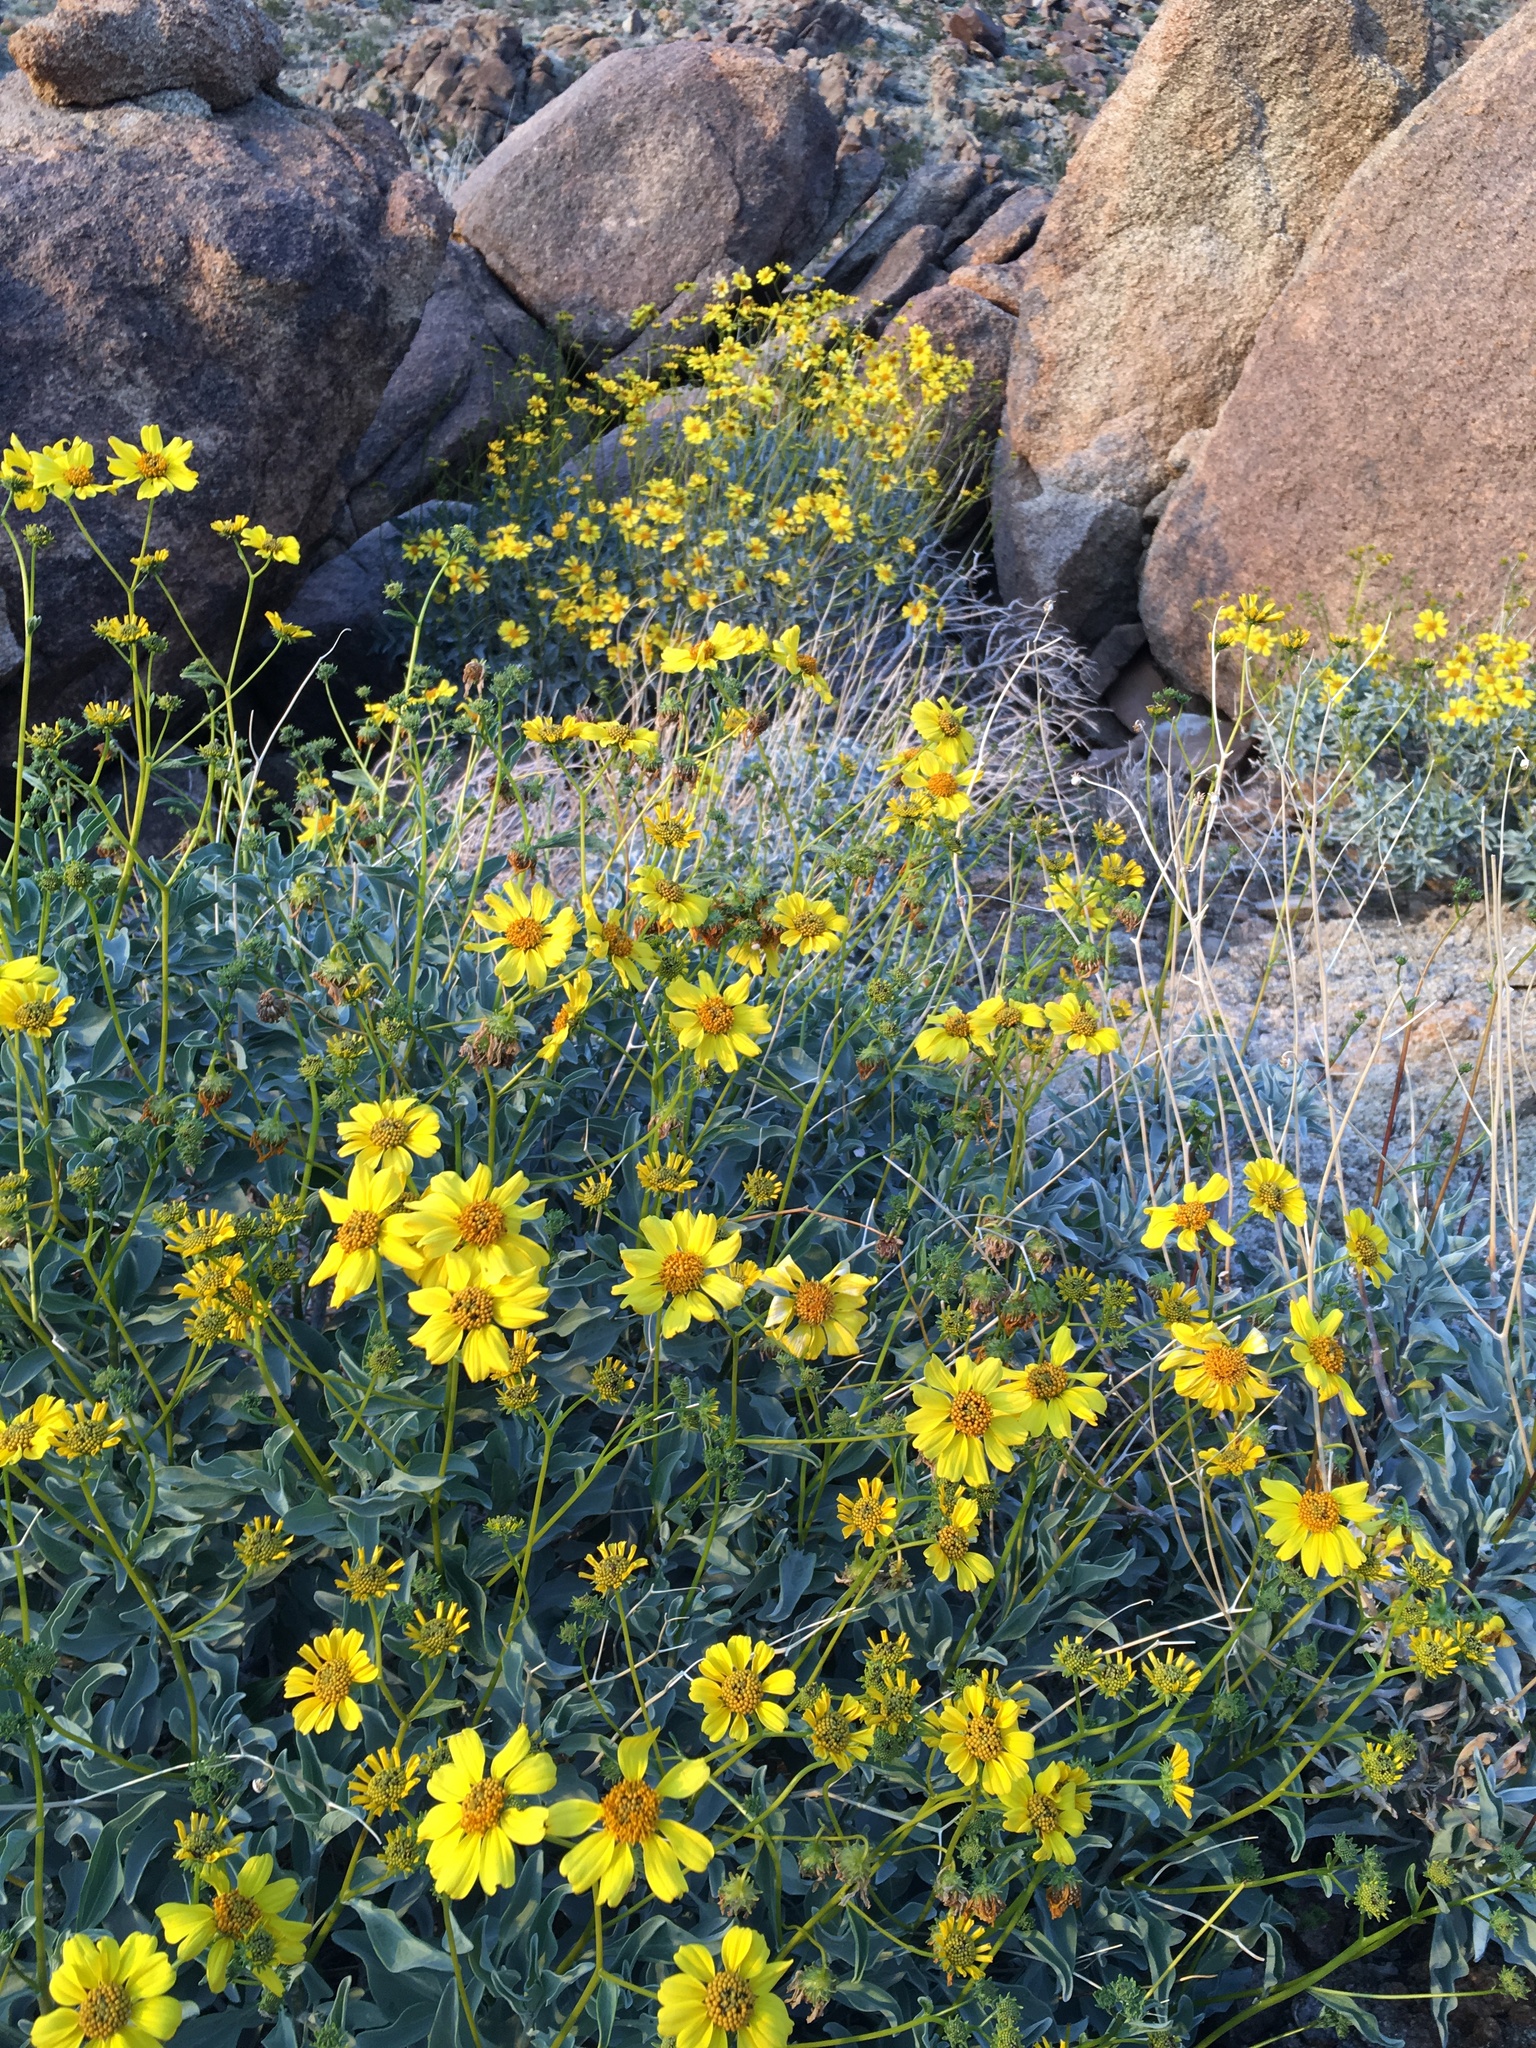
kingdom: Plantae
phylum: Tracheophyta
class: Magnoliopsida
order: Asterales
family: Asteraceae
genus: Encelia
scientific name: Encelia farinosa
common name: Brittlebush
